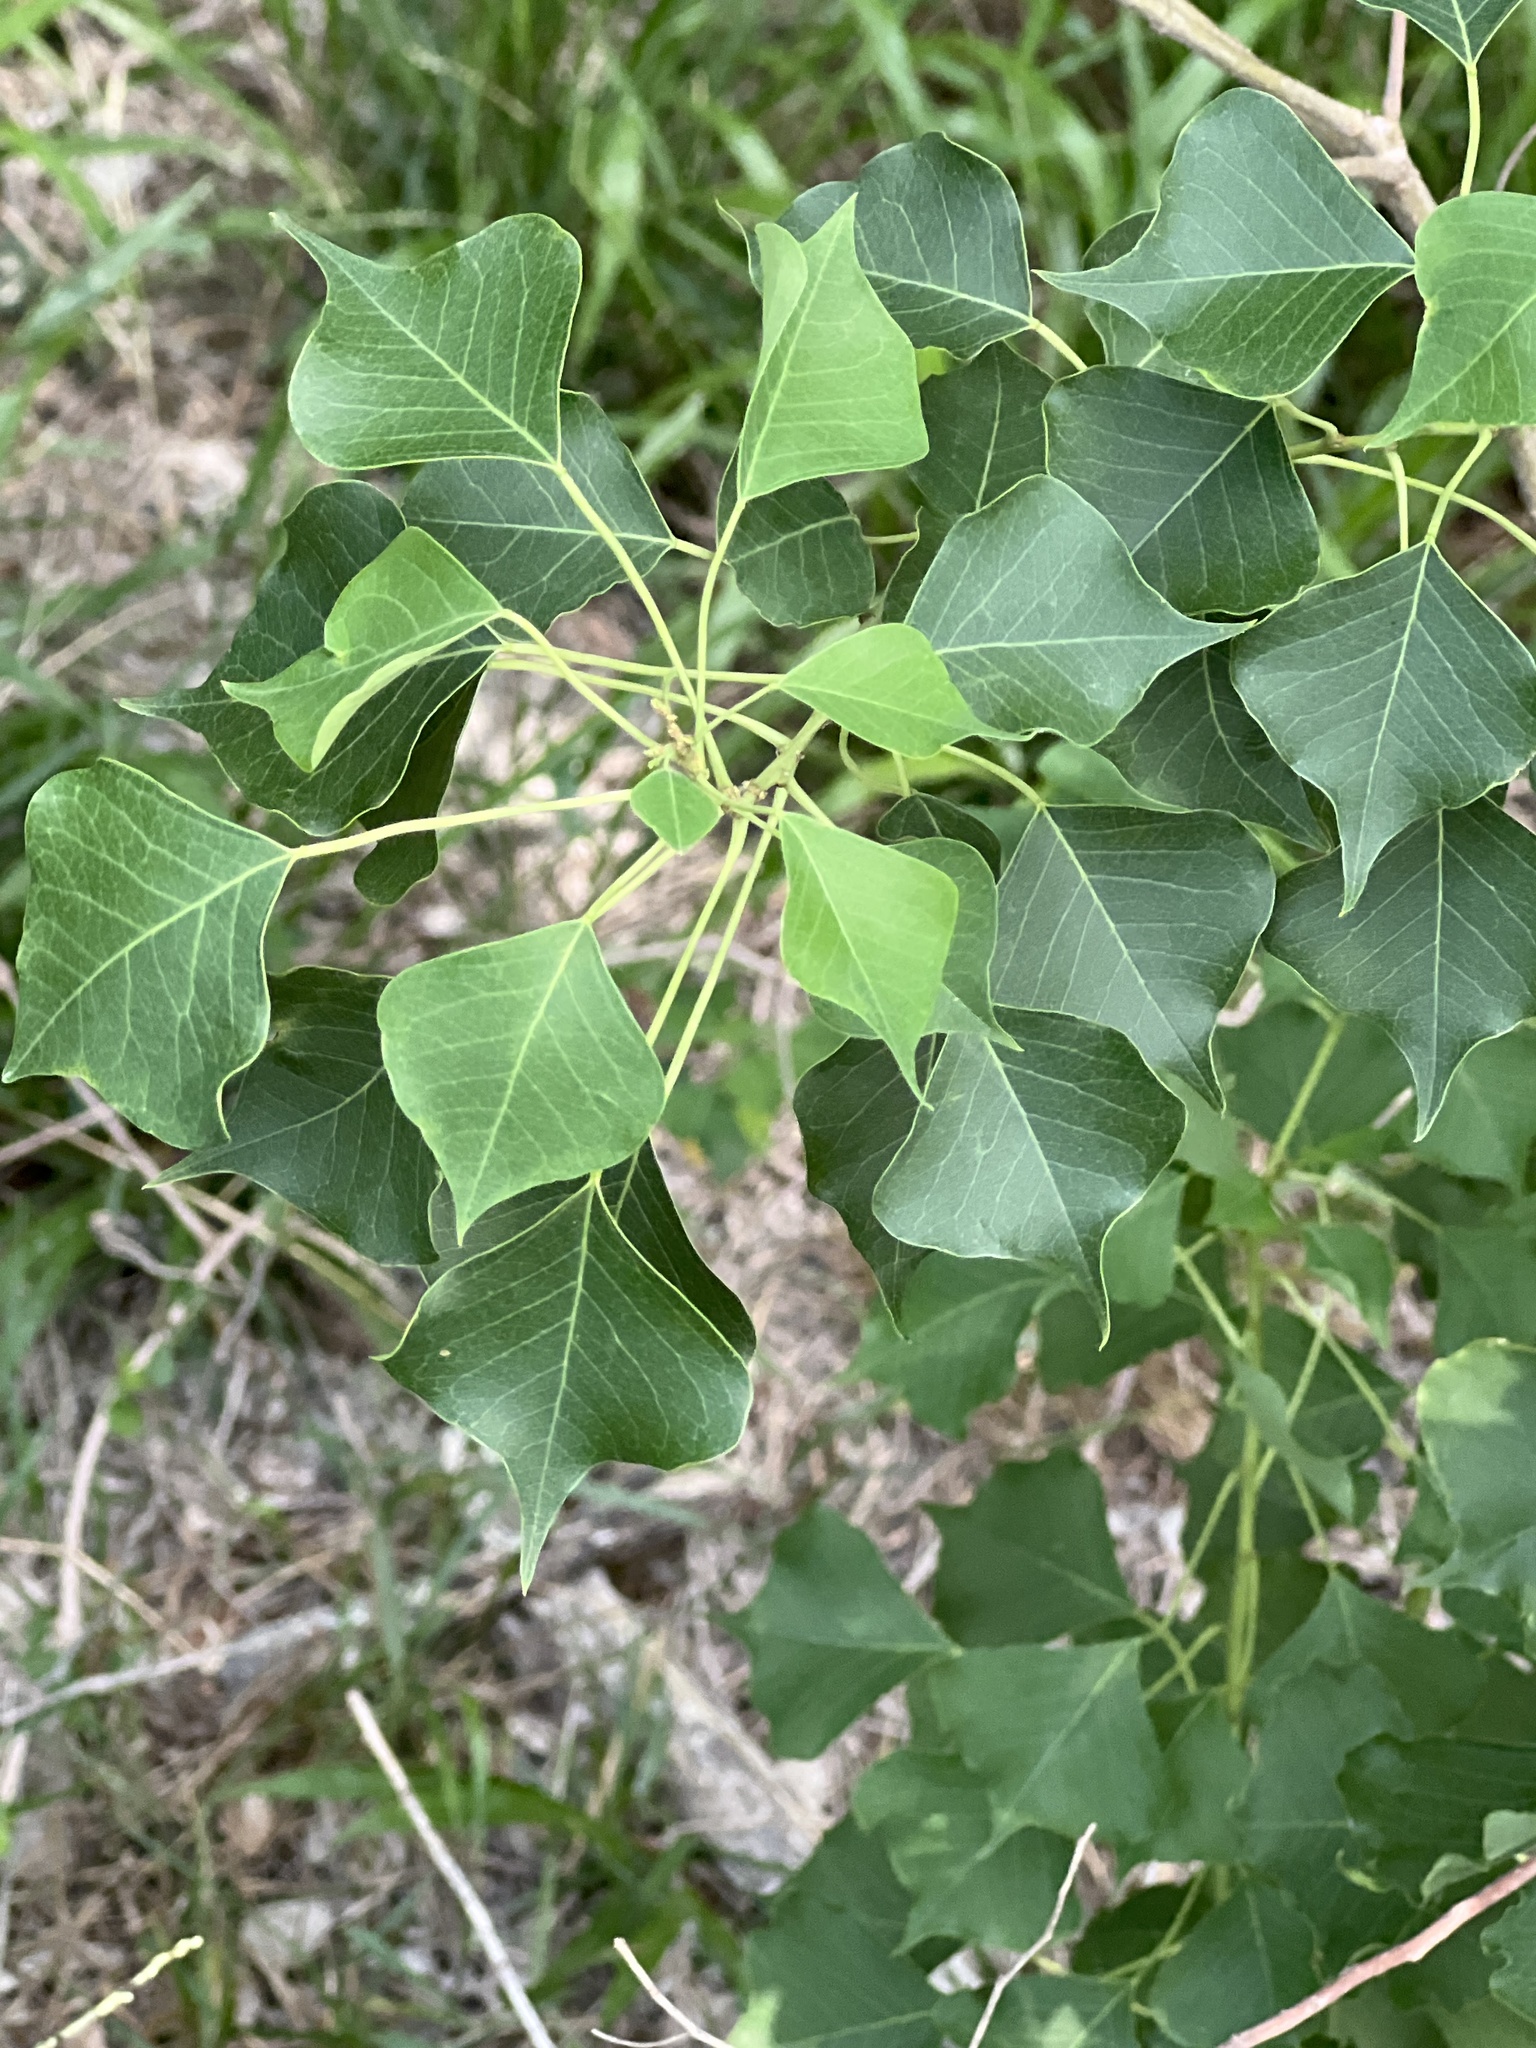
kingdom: Plantae
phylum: Tracheophyta
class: Magnoliopsida
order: Malpighiales
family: Euphorbiaceae
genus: Triadica
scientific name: Triadica sebifera
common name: Chinese tallow
